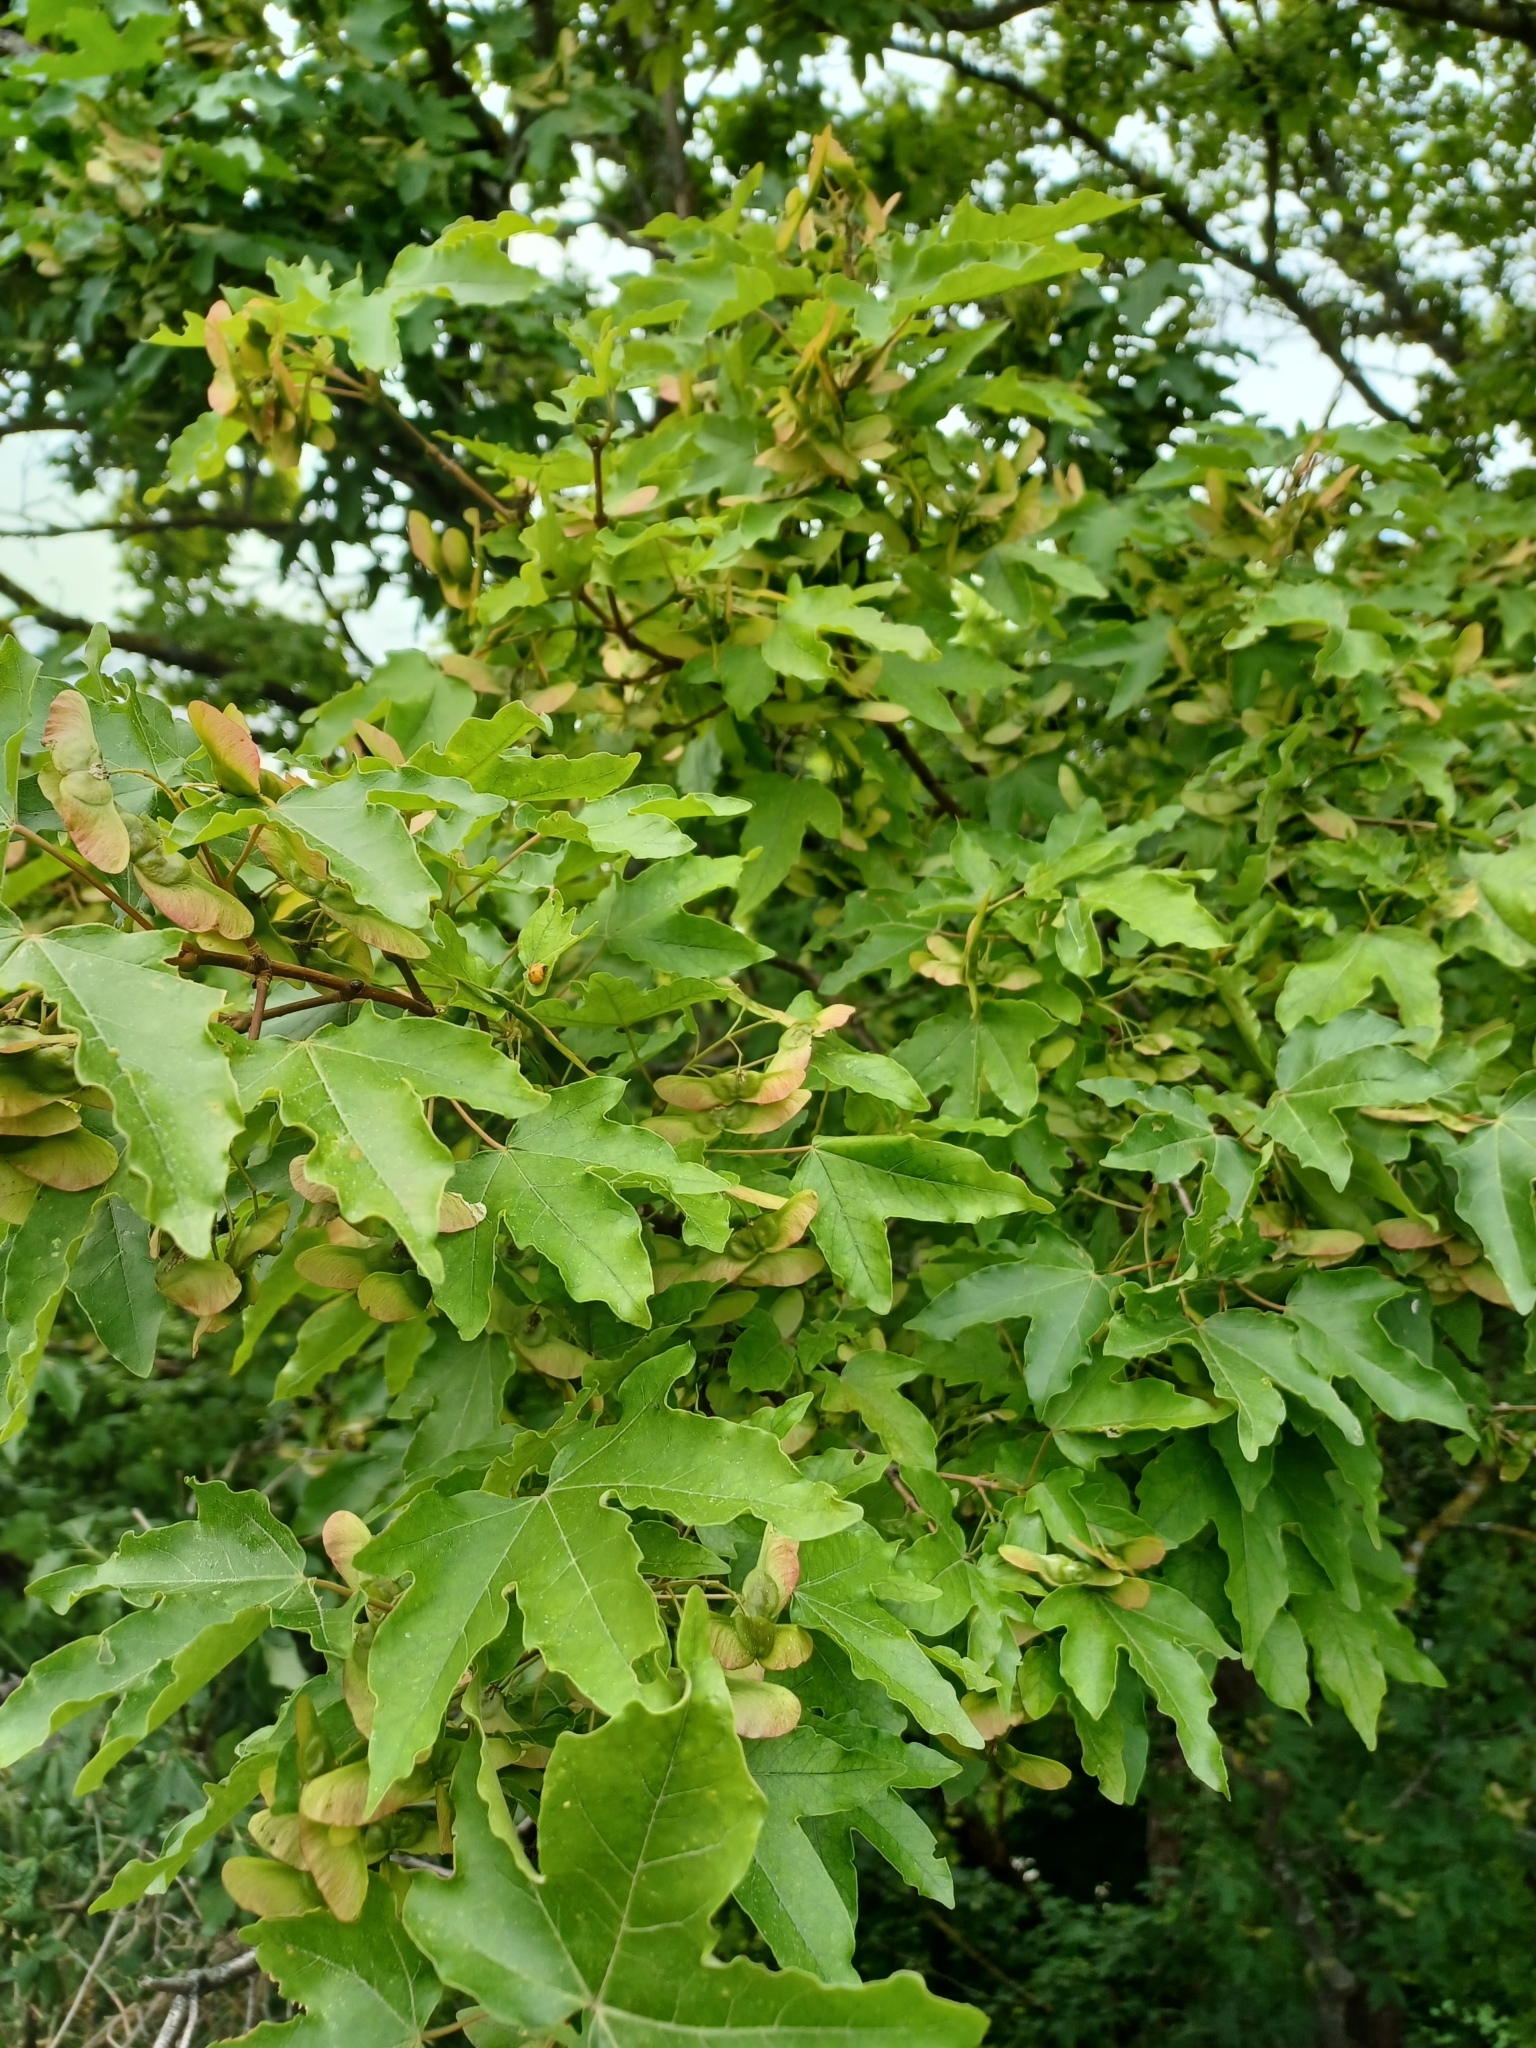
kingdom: Plantae
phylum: Tracheophyta
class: Magnoliopsida
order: Sapindales
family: Sapindaceae
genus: Acer
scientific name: Acer campestre
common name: Field maple
